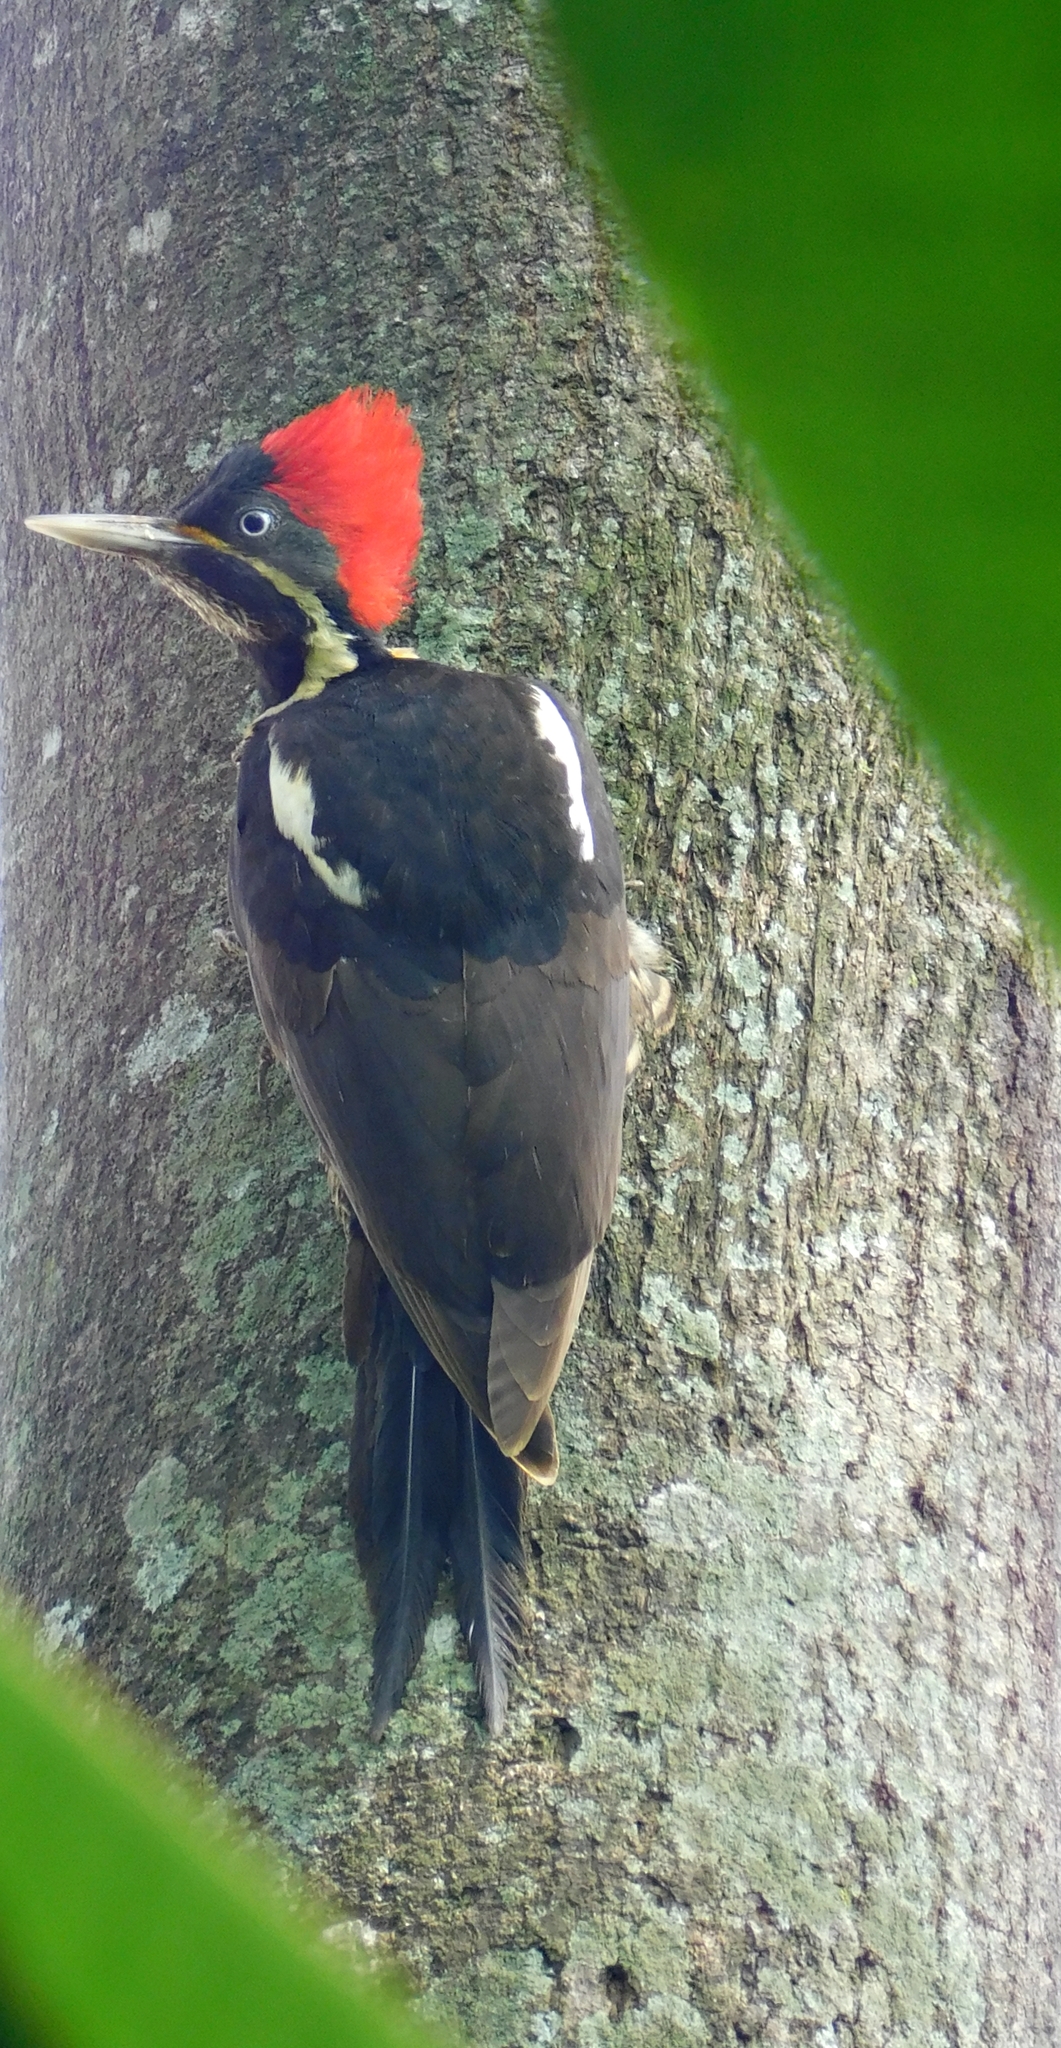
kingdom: Animalia
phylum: Chordata
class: Aves
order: Piciformes
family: Picidae
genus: Dryocopus
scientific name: Dryocopus lineatus
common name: Lineated woodpecker
